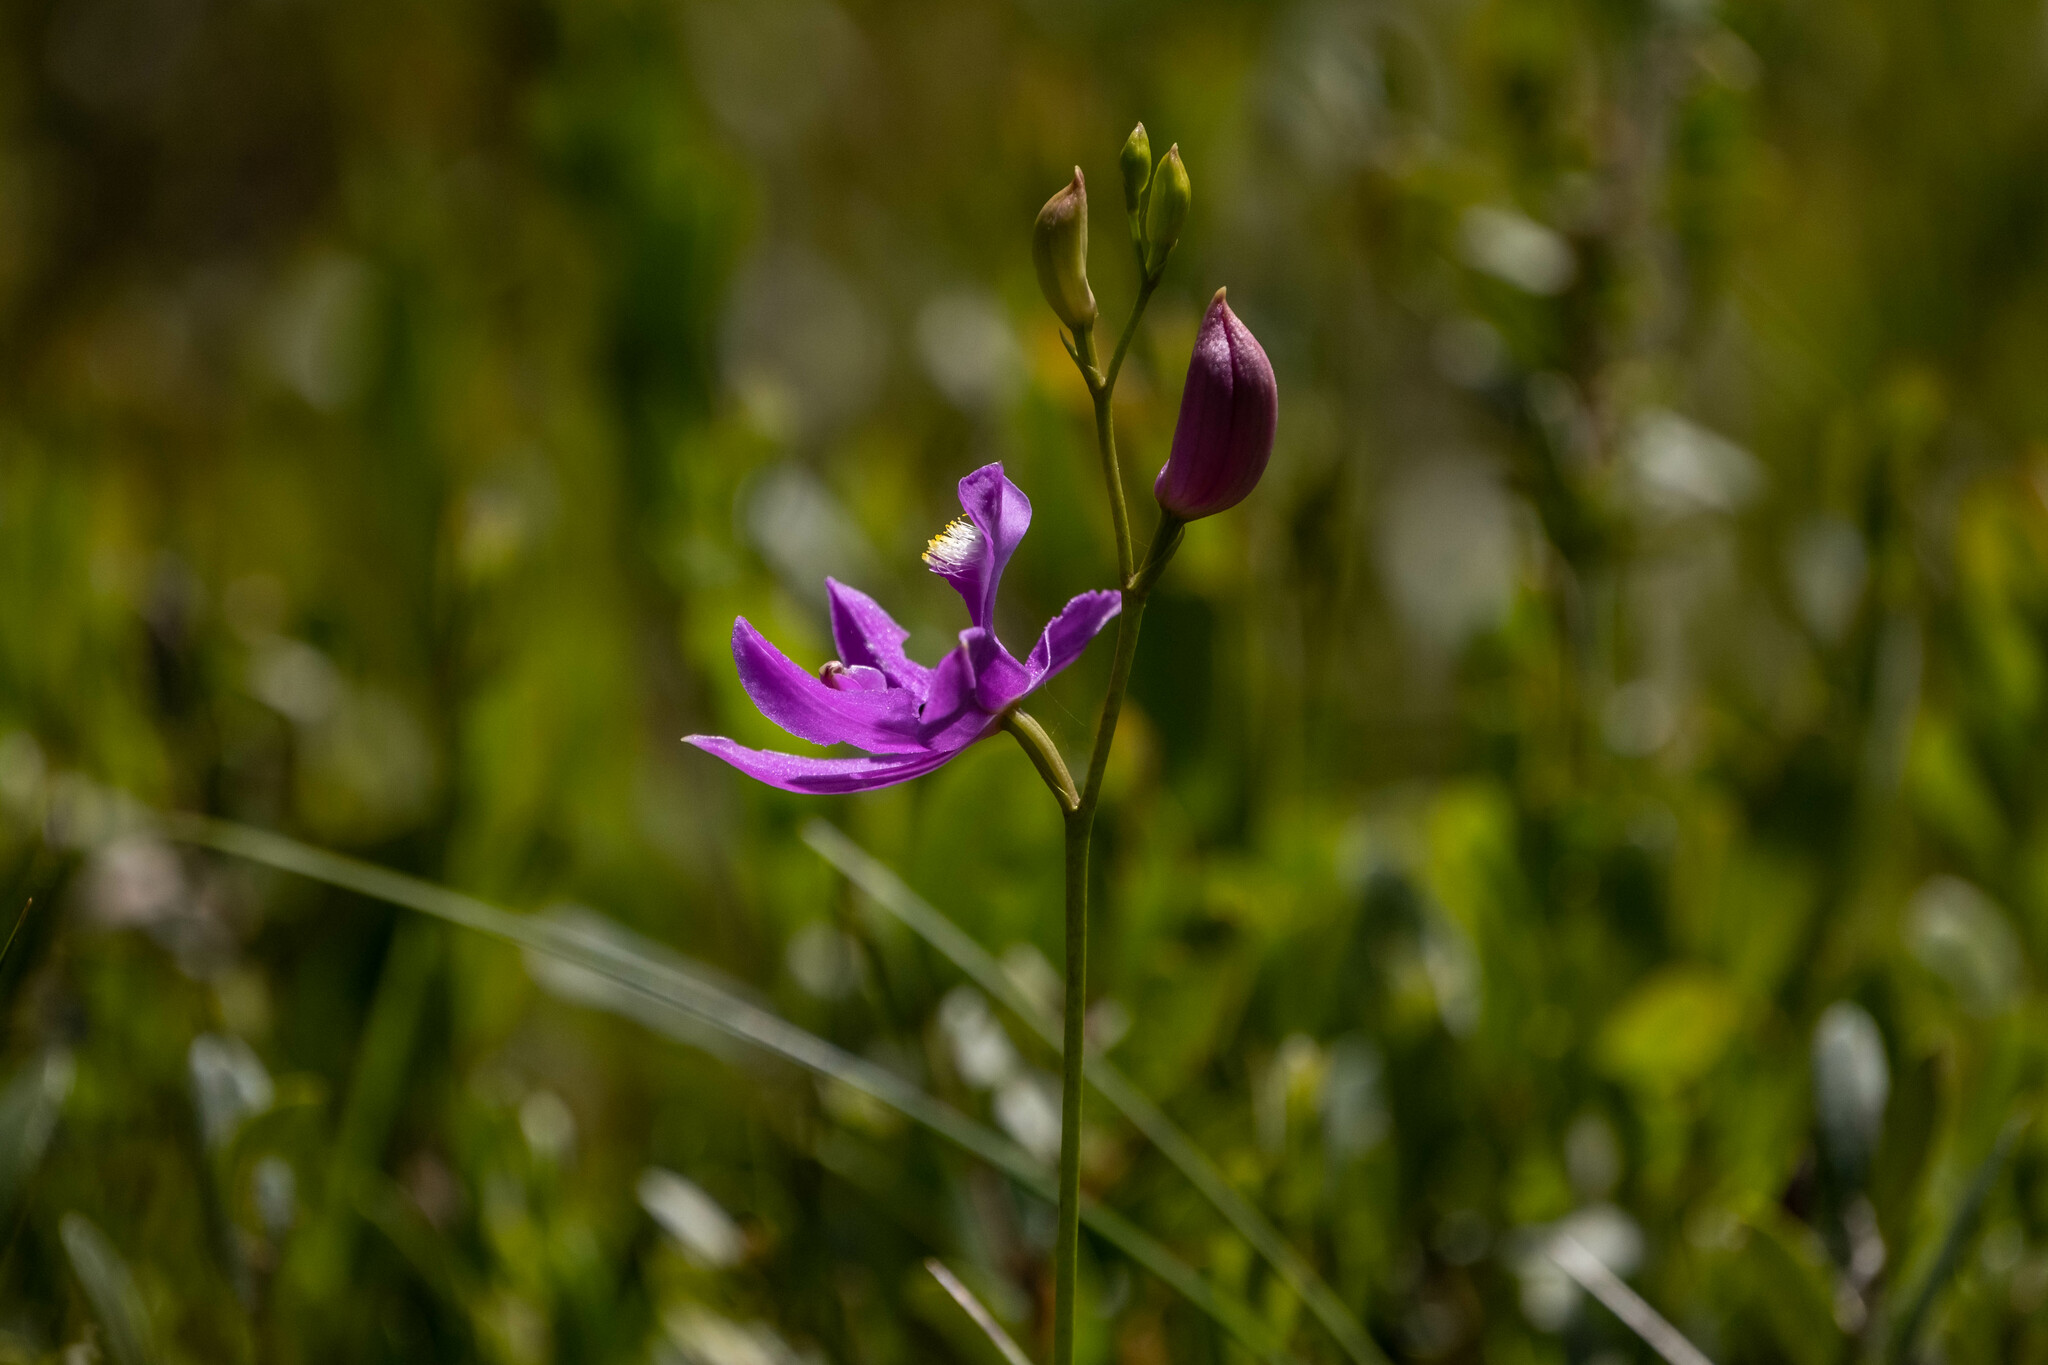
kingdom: Plantae
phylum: Tracheophyta
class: Liliopsida
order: Asparagales
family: Orchidaceae
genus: Calopogon
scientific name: Calopogon tuberosus
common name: Grass-pink
